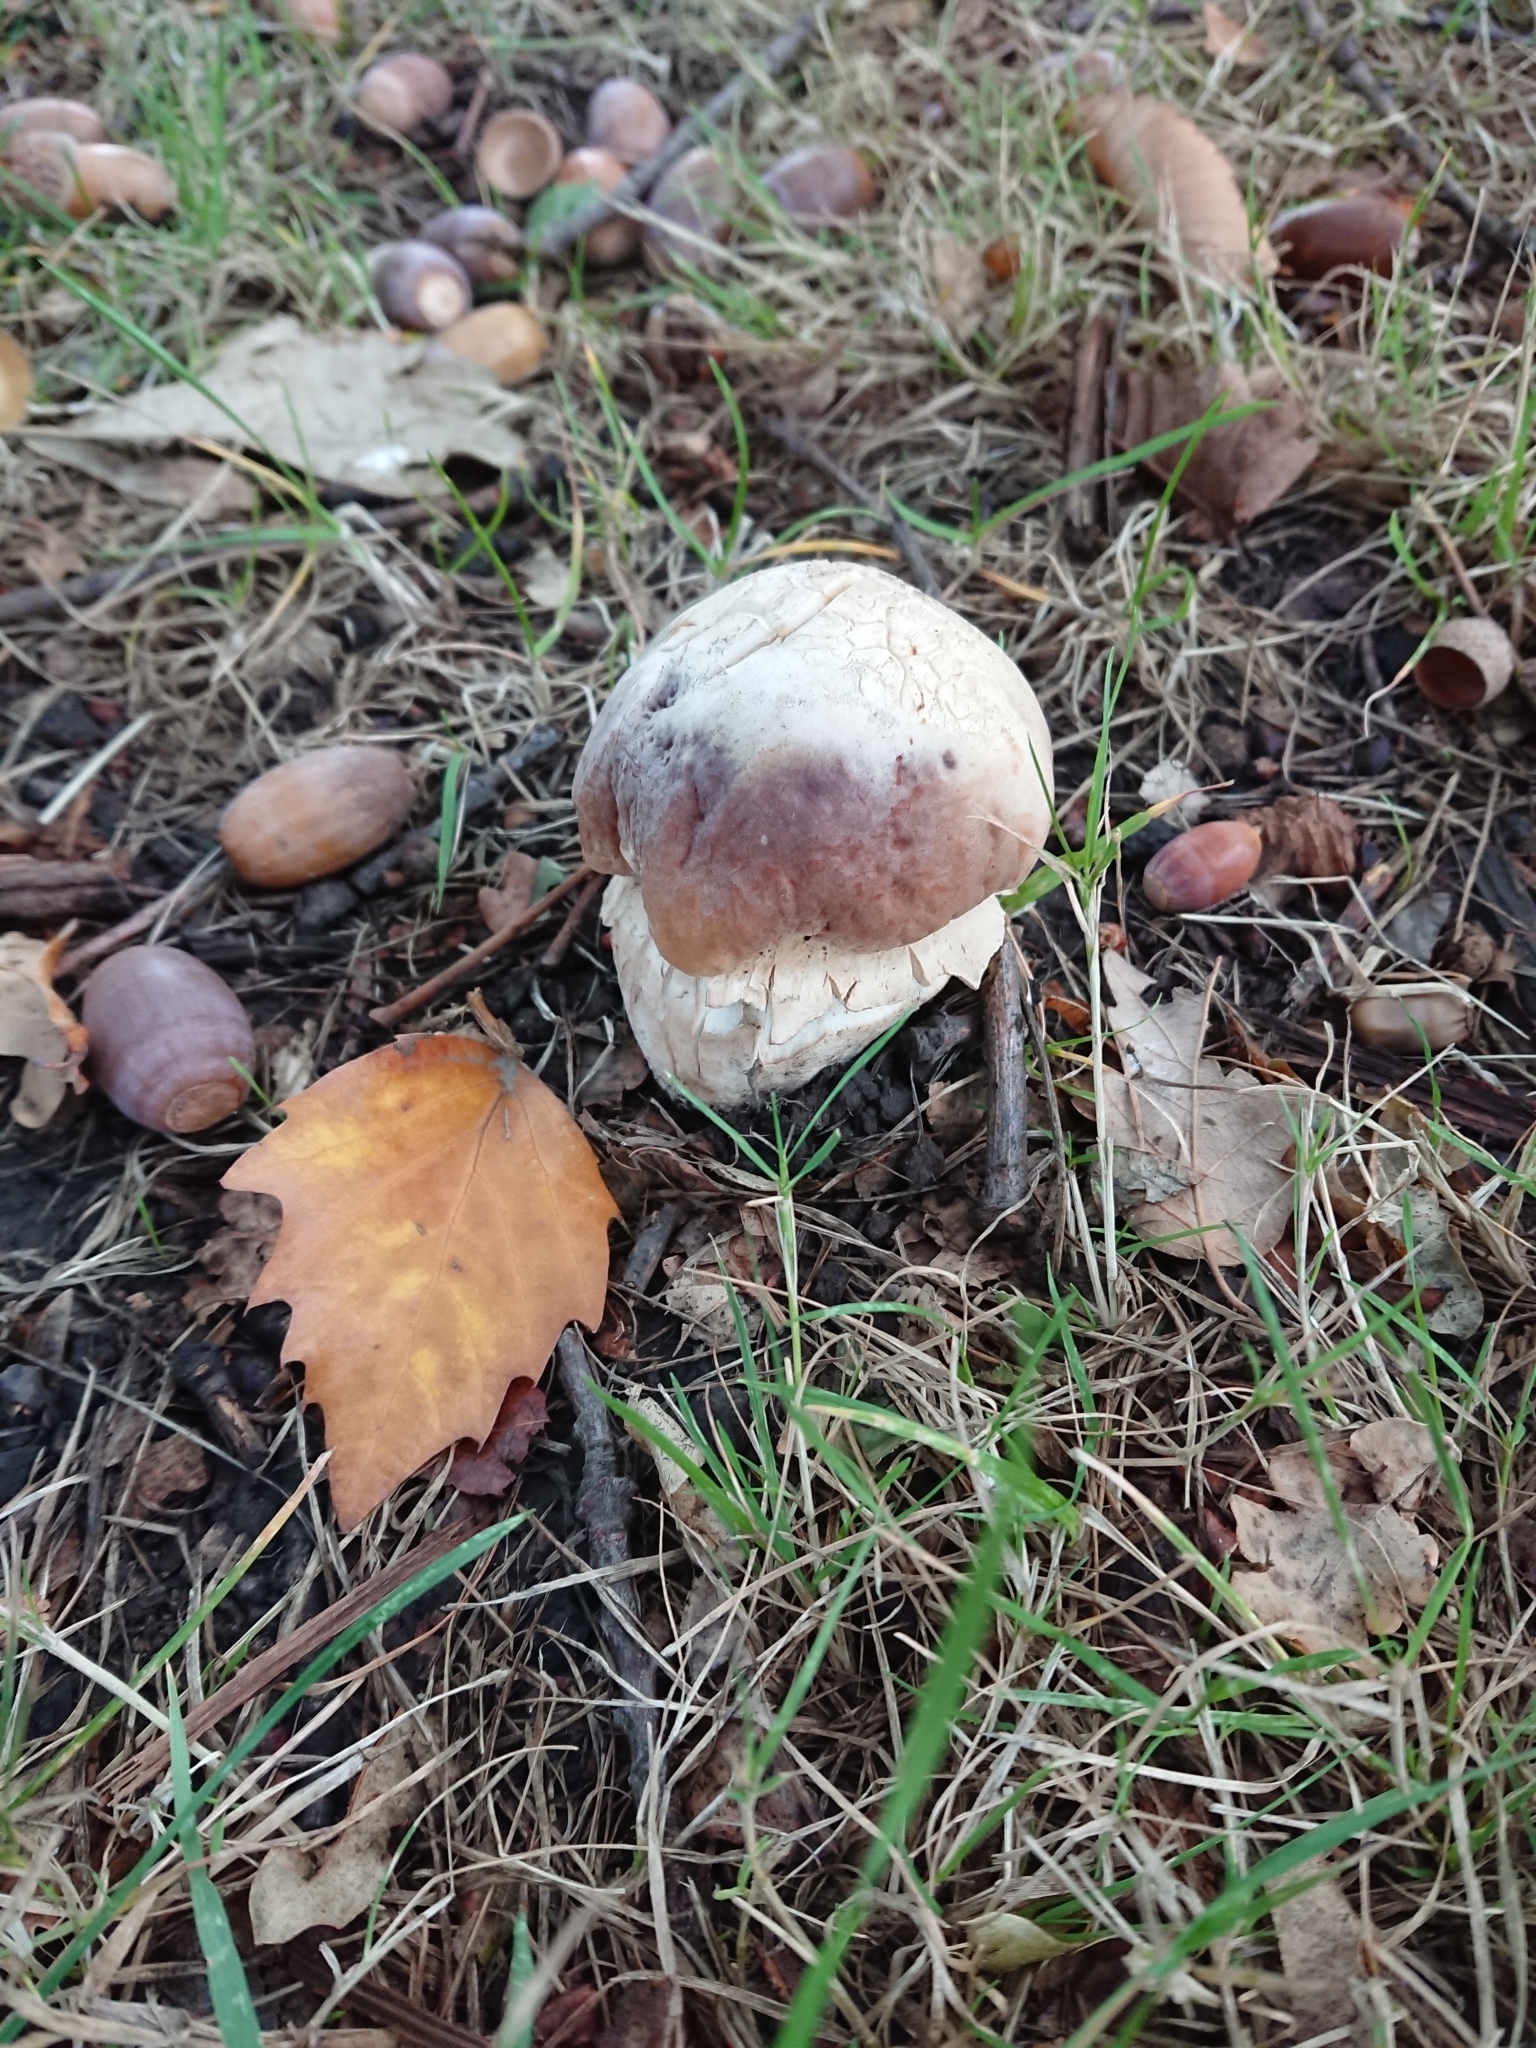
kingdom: Fungi
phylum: Basidiomycota
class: Agaricomycetes
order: Boletales
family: Boletaceae
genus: Boletus
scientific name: Boletus edulis
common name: Cep
